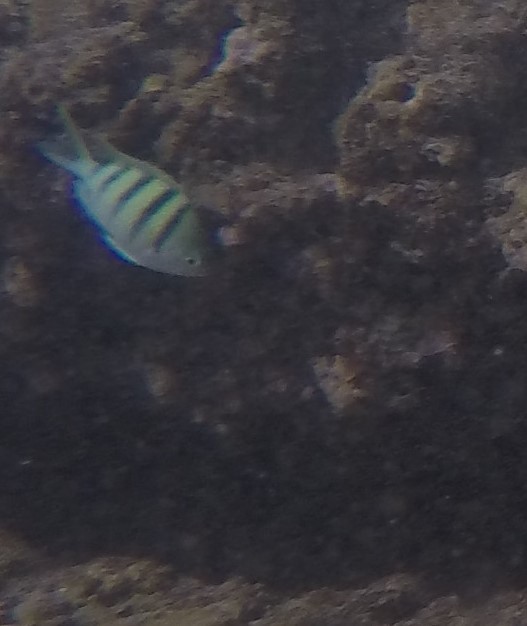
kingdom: Animalia
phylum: Chordata
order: Perciformes
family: Pomacentridae
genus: Abudefduf
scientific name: Abudefduf abdominalis
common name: Green damselfish
